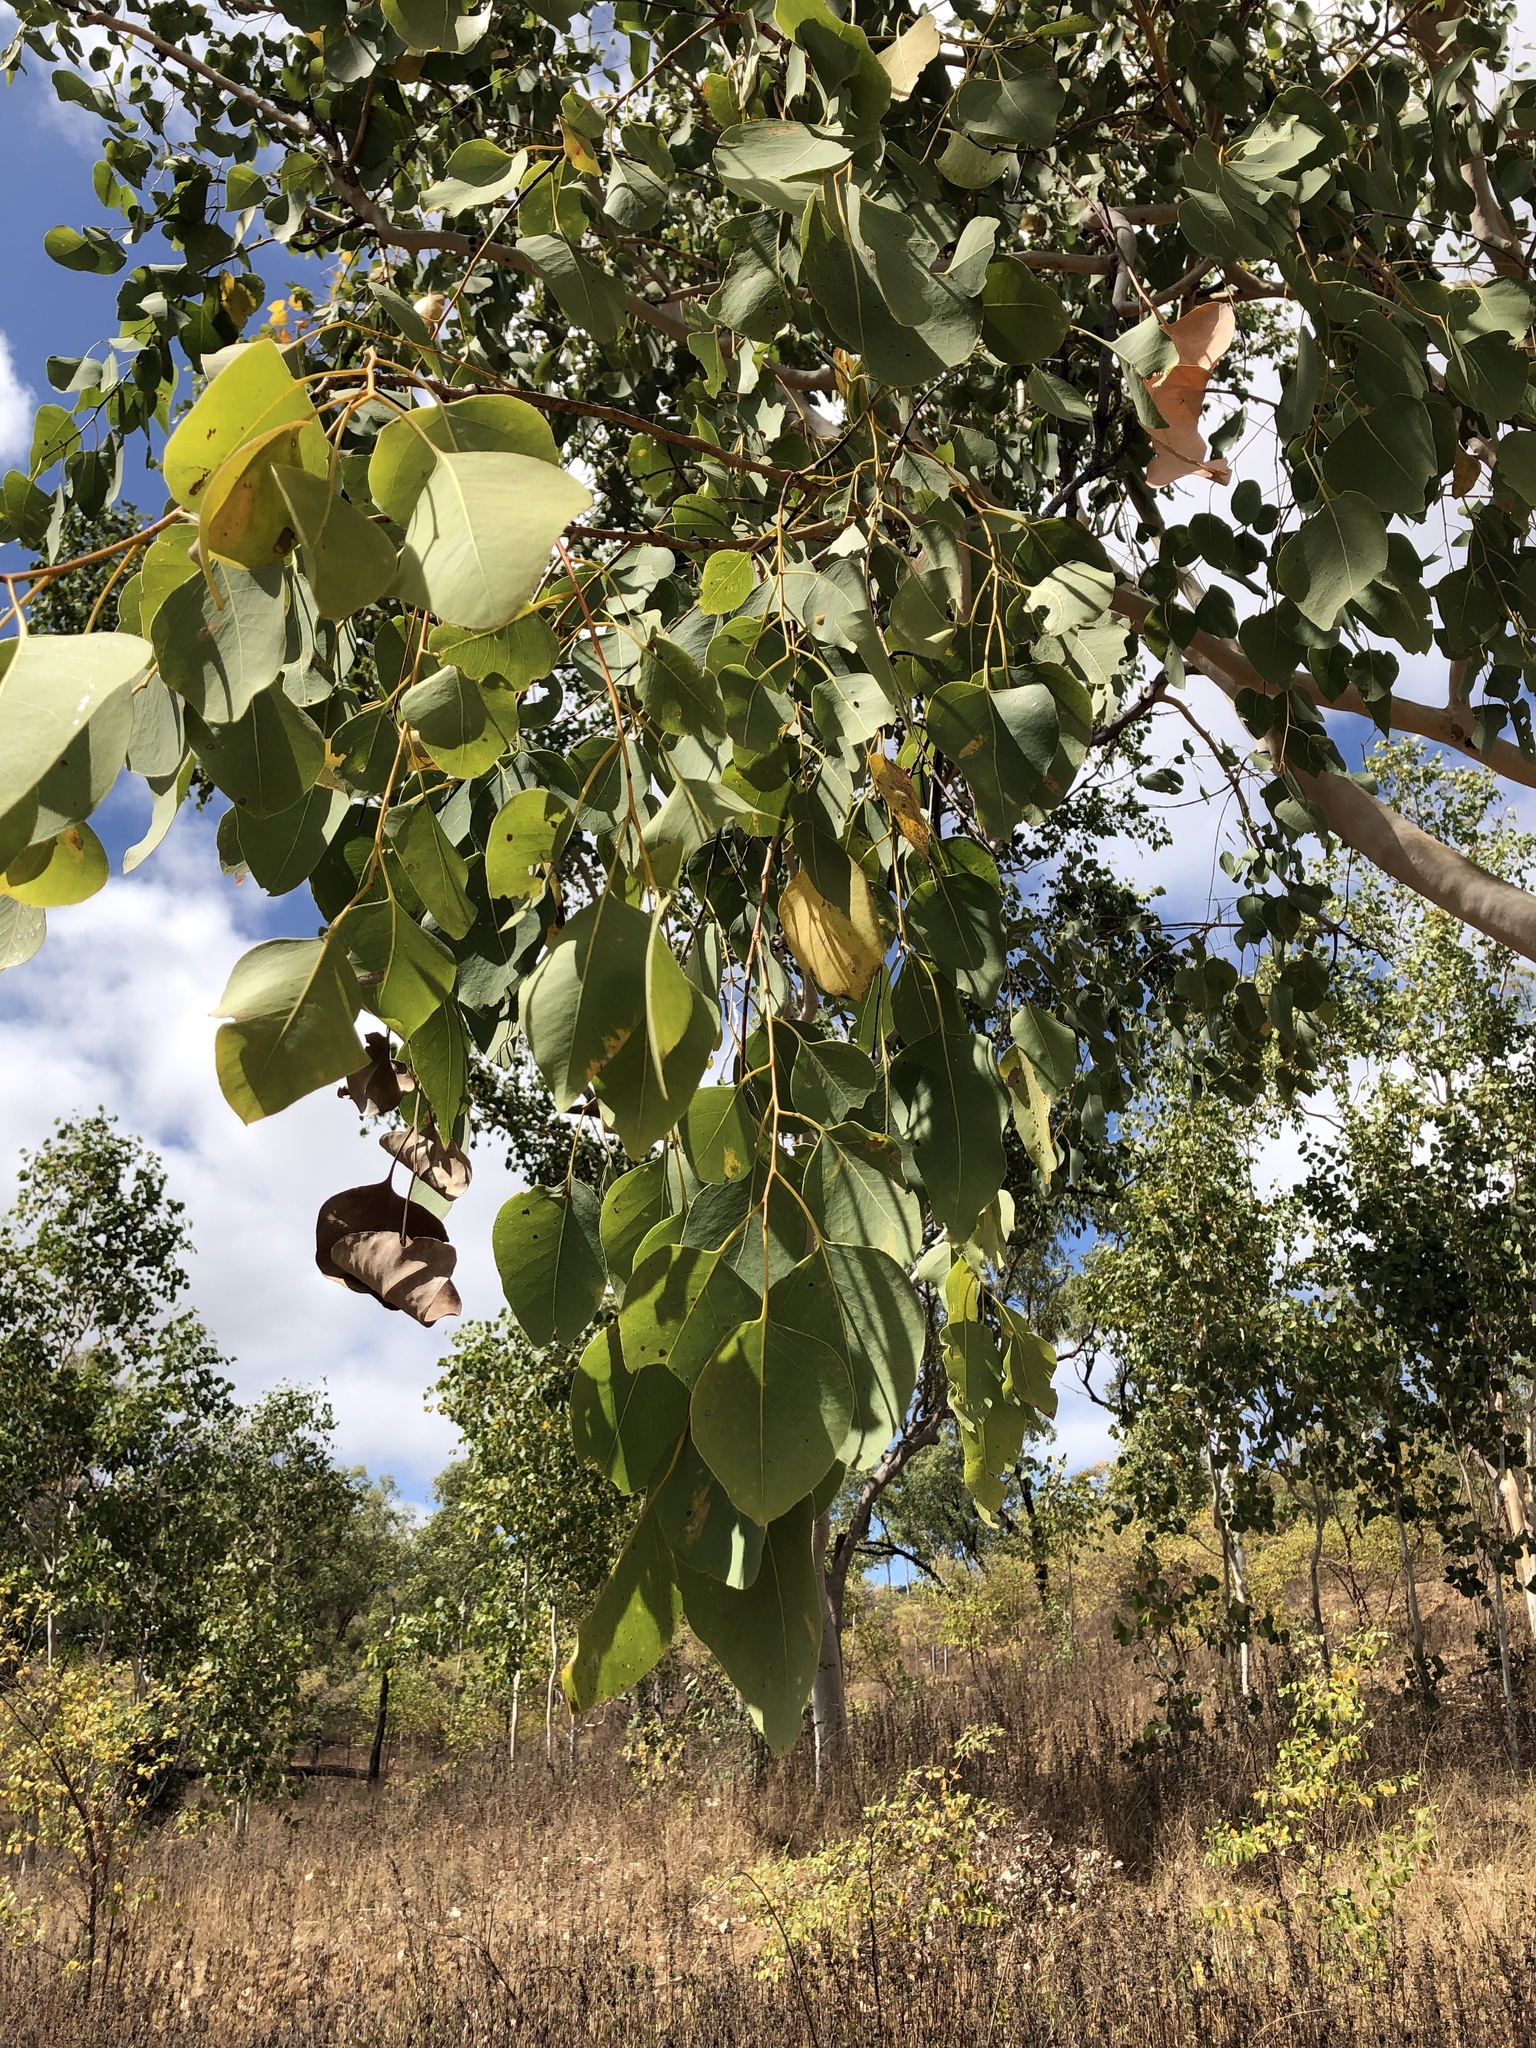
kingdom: Plantae
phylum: Tracheophyta
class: Magnoliopsida
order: Myrtales
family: Myrtaceae
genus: Eucalyptus
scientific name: Eucalyptus platyphylla
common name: Poplar-gum
